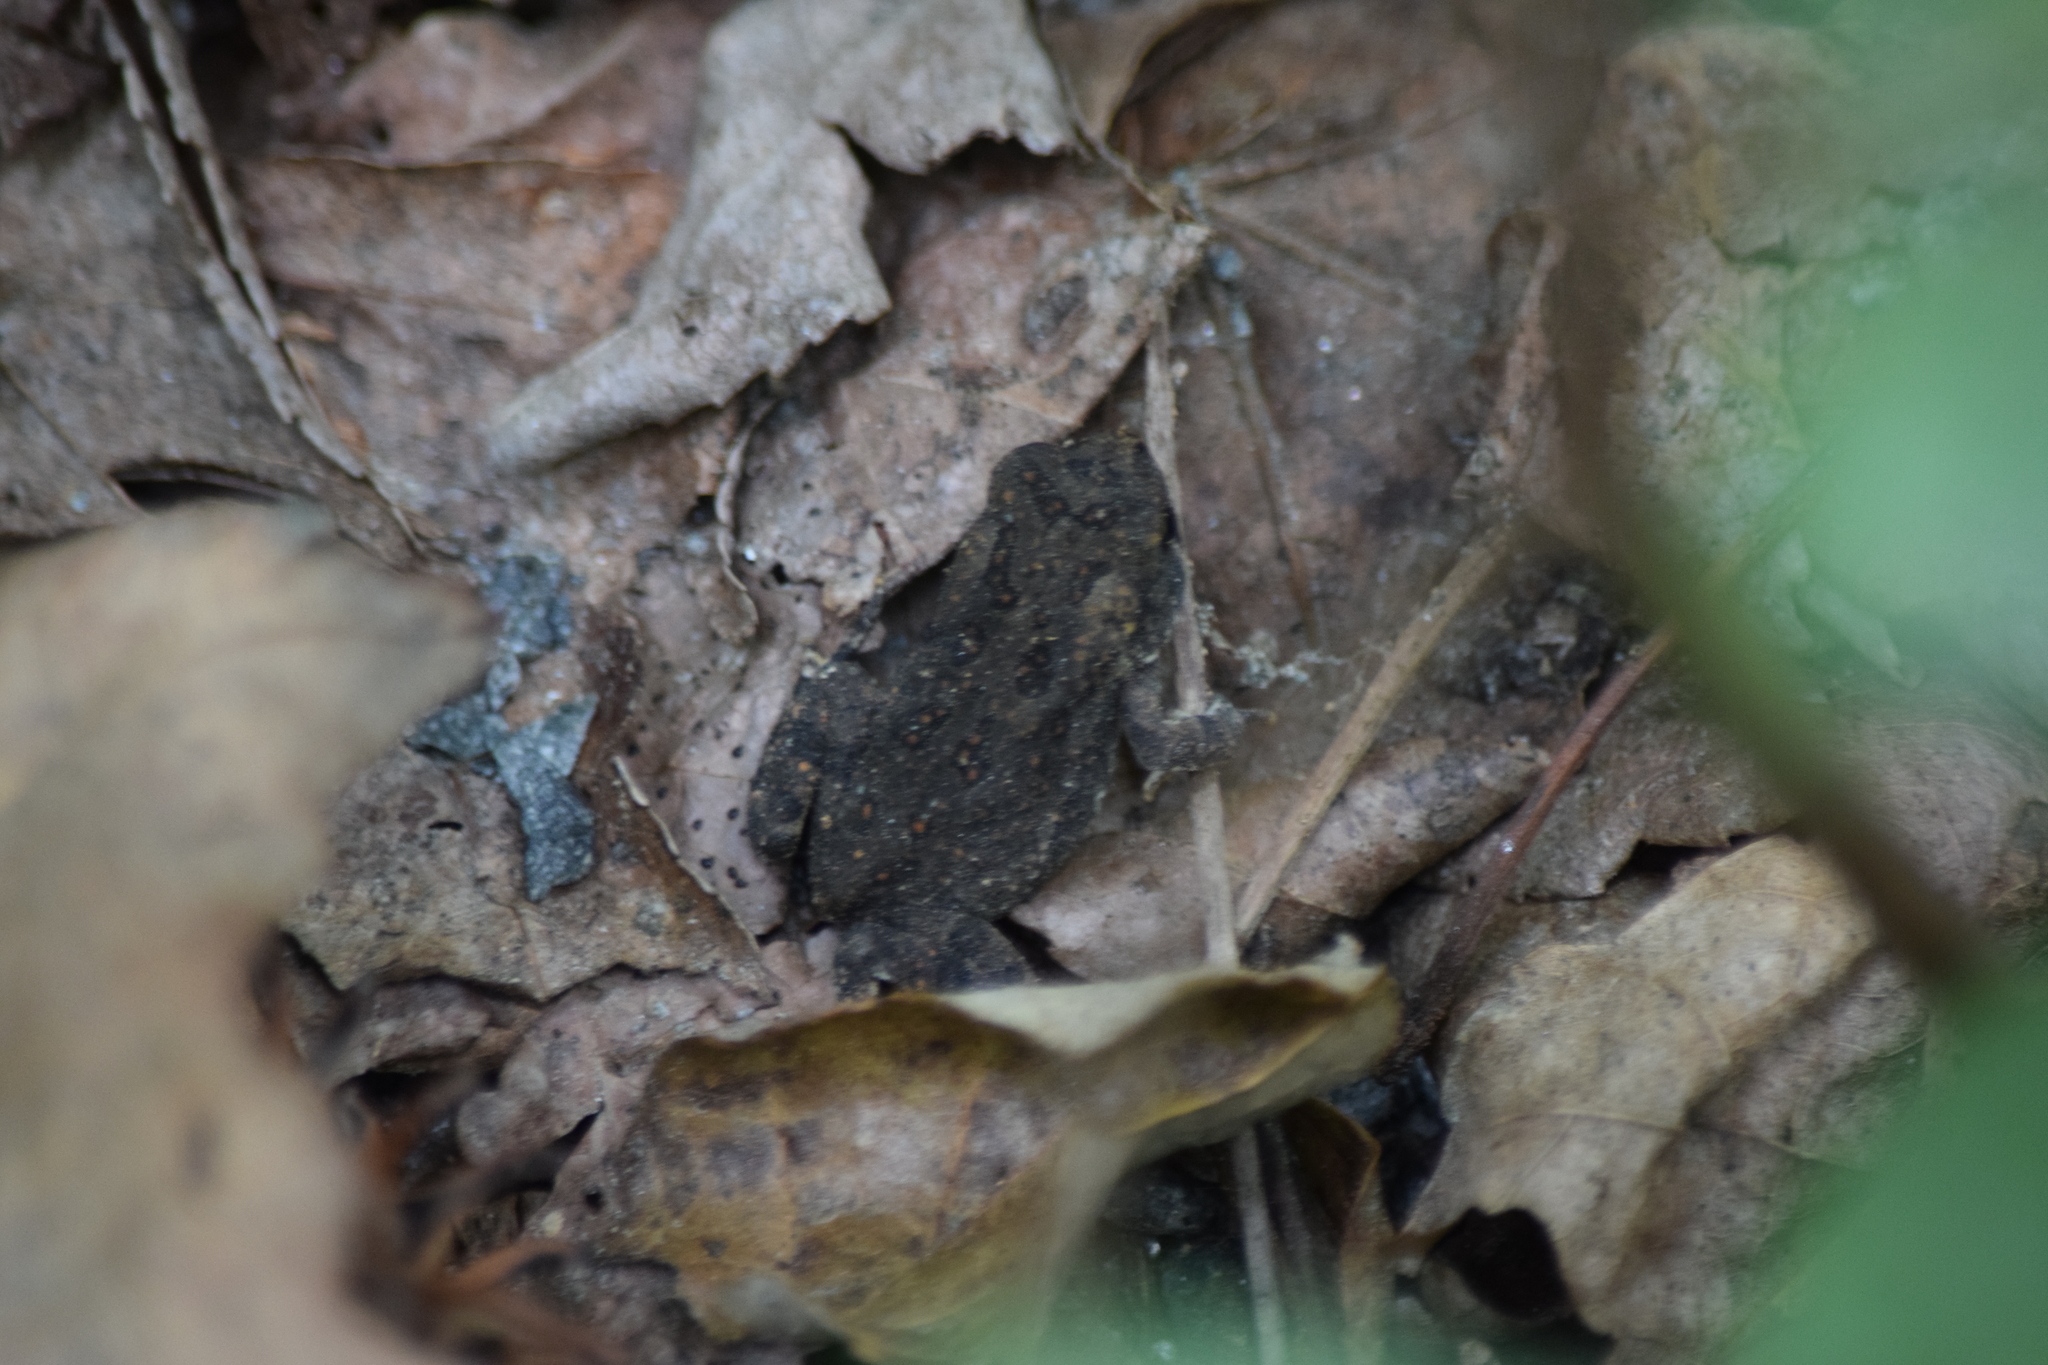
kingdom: Animalia
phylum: Chordata
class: Amphibia
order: Anura
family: Bufonidae
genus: Anaxyrus
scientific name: Anaxyrus fowleri
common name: Fowler's toad
